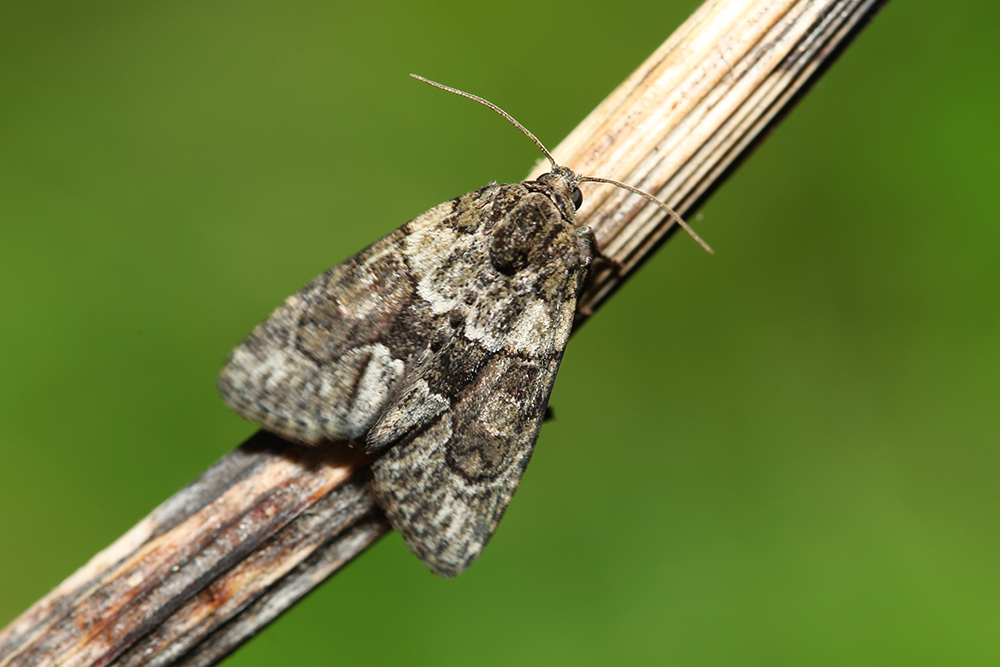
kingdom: Animalia
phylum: Arthropoda
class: Insecta
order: Lepidoptera
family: Noctuidae
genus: Cryphia
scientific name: Cryphia fraudatricula
